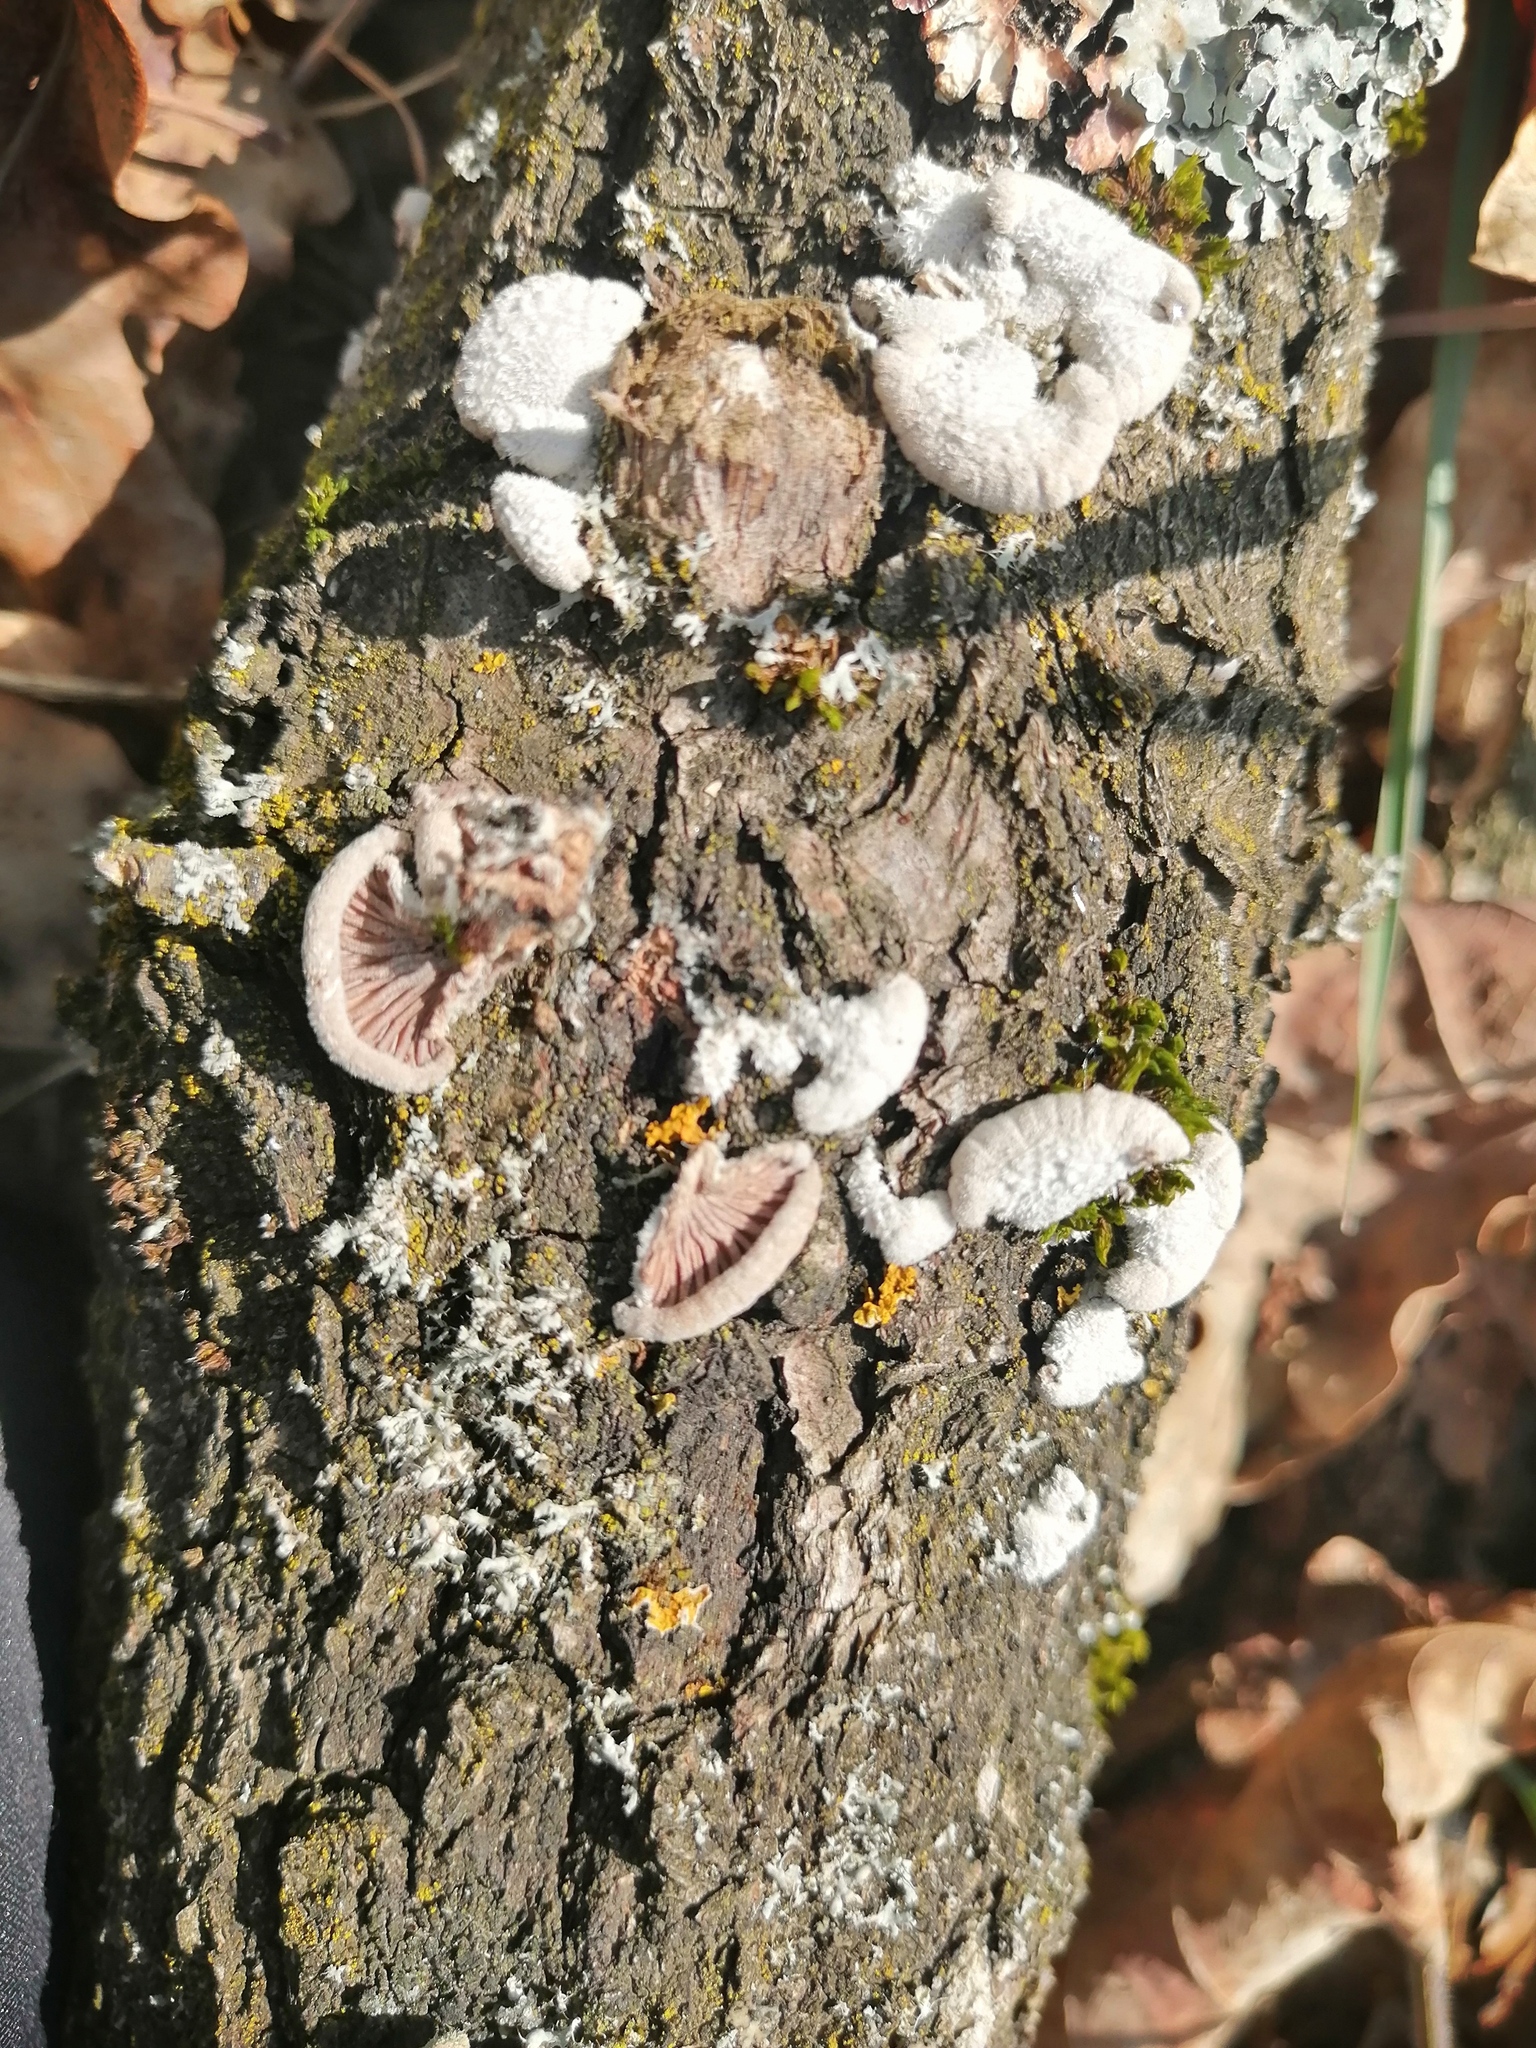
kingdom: Fungi
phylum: Basidiomycota
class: Agaricomycetes
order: Agaricales
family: Schizophyllaceae
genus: Schizophyllum
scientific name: Schizophyllum commune
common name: Common porecrust
